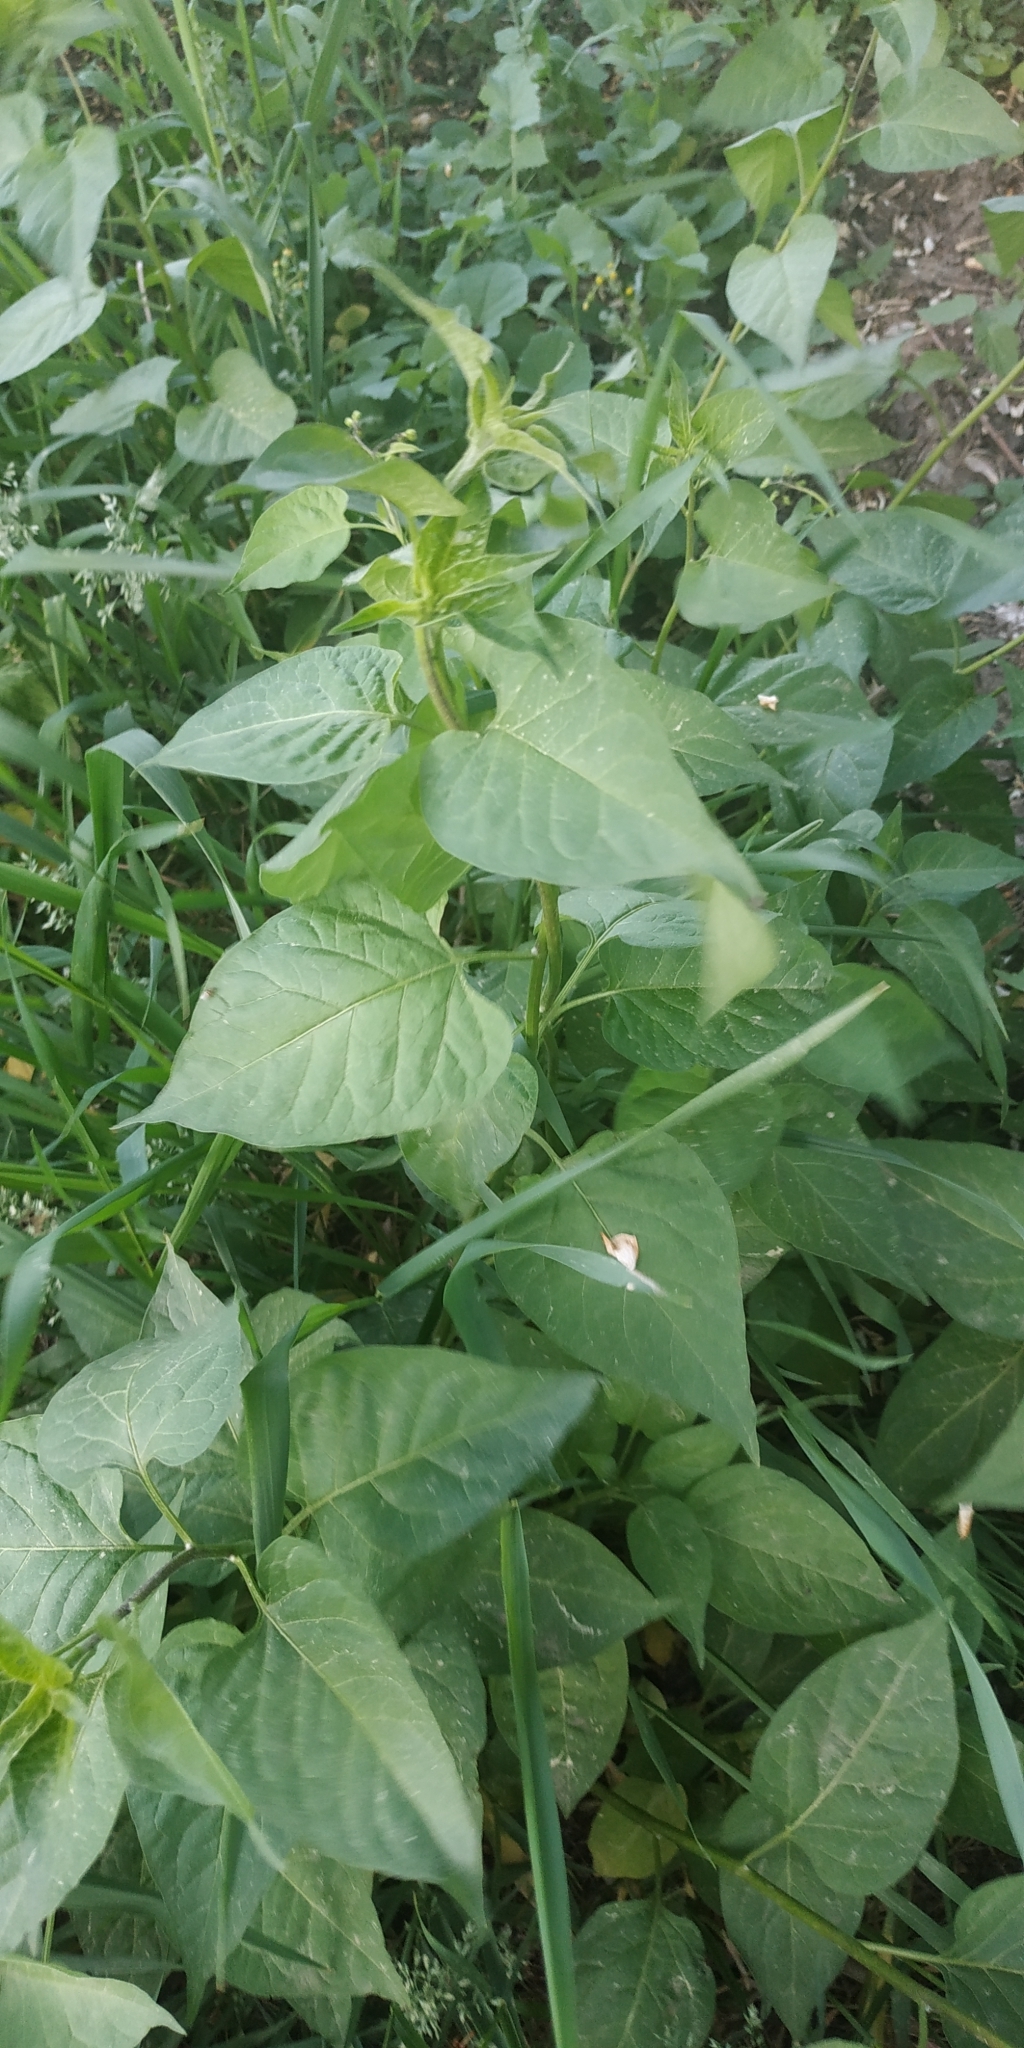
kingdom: Plantae
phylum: Tracheophyta
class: Magnoliopsida
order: Solanales
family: Solanaceae
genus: Solanum
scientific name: Solanum dulcamara
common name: Climbing nightshade
